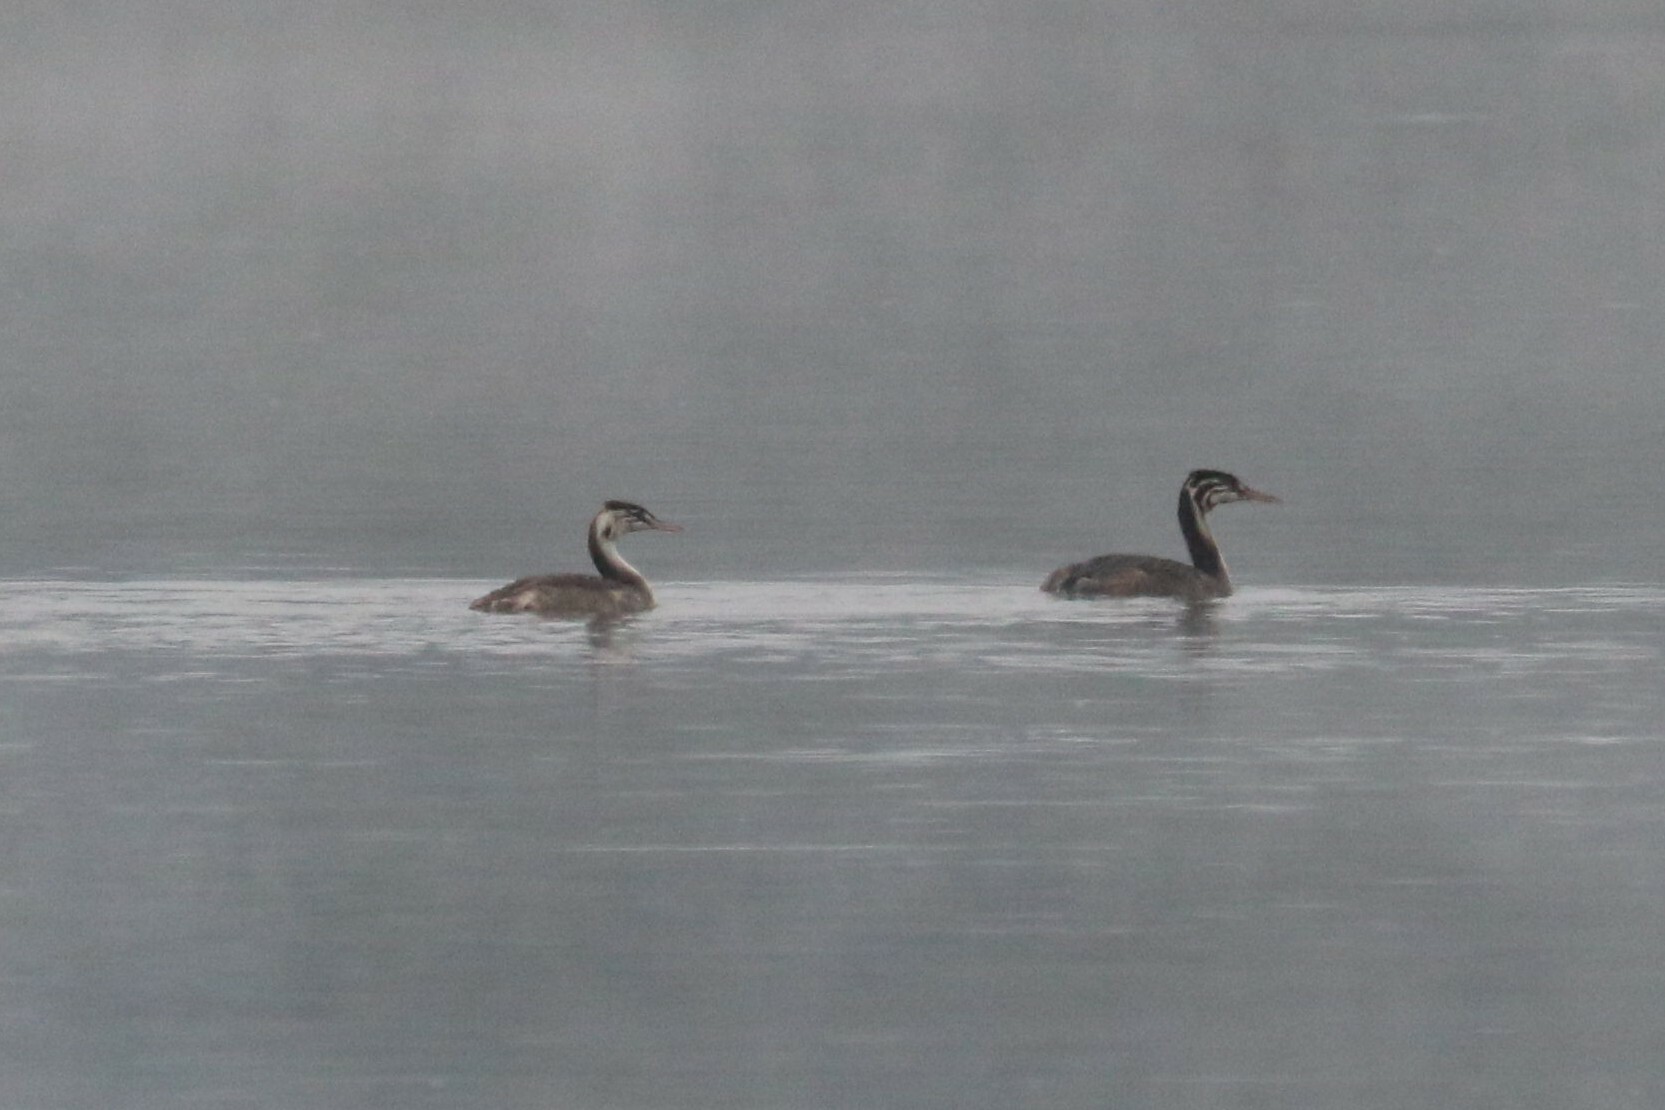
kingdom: Animalia
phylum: Chordata
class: Aves
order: Podicipediformes
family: Podicipedidae
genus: Podiceps
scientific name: Podiceps cristatus
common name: Great crested grebe
